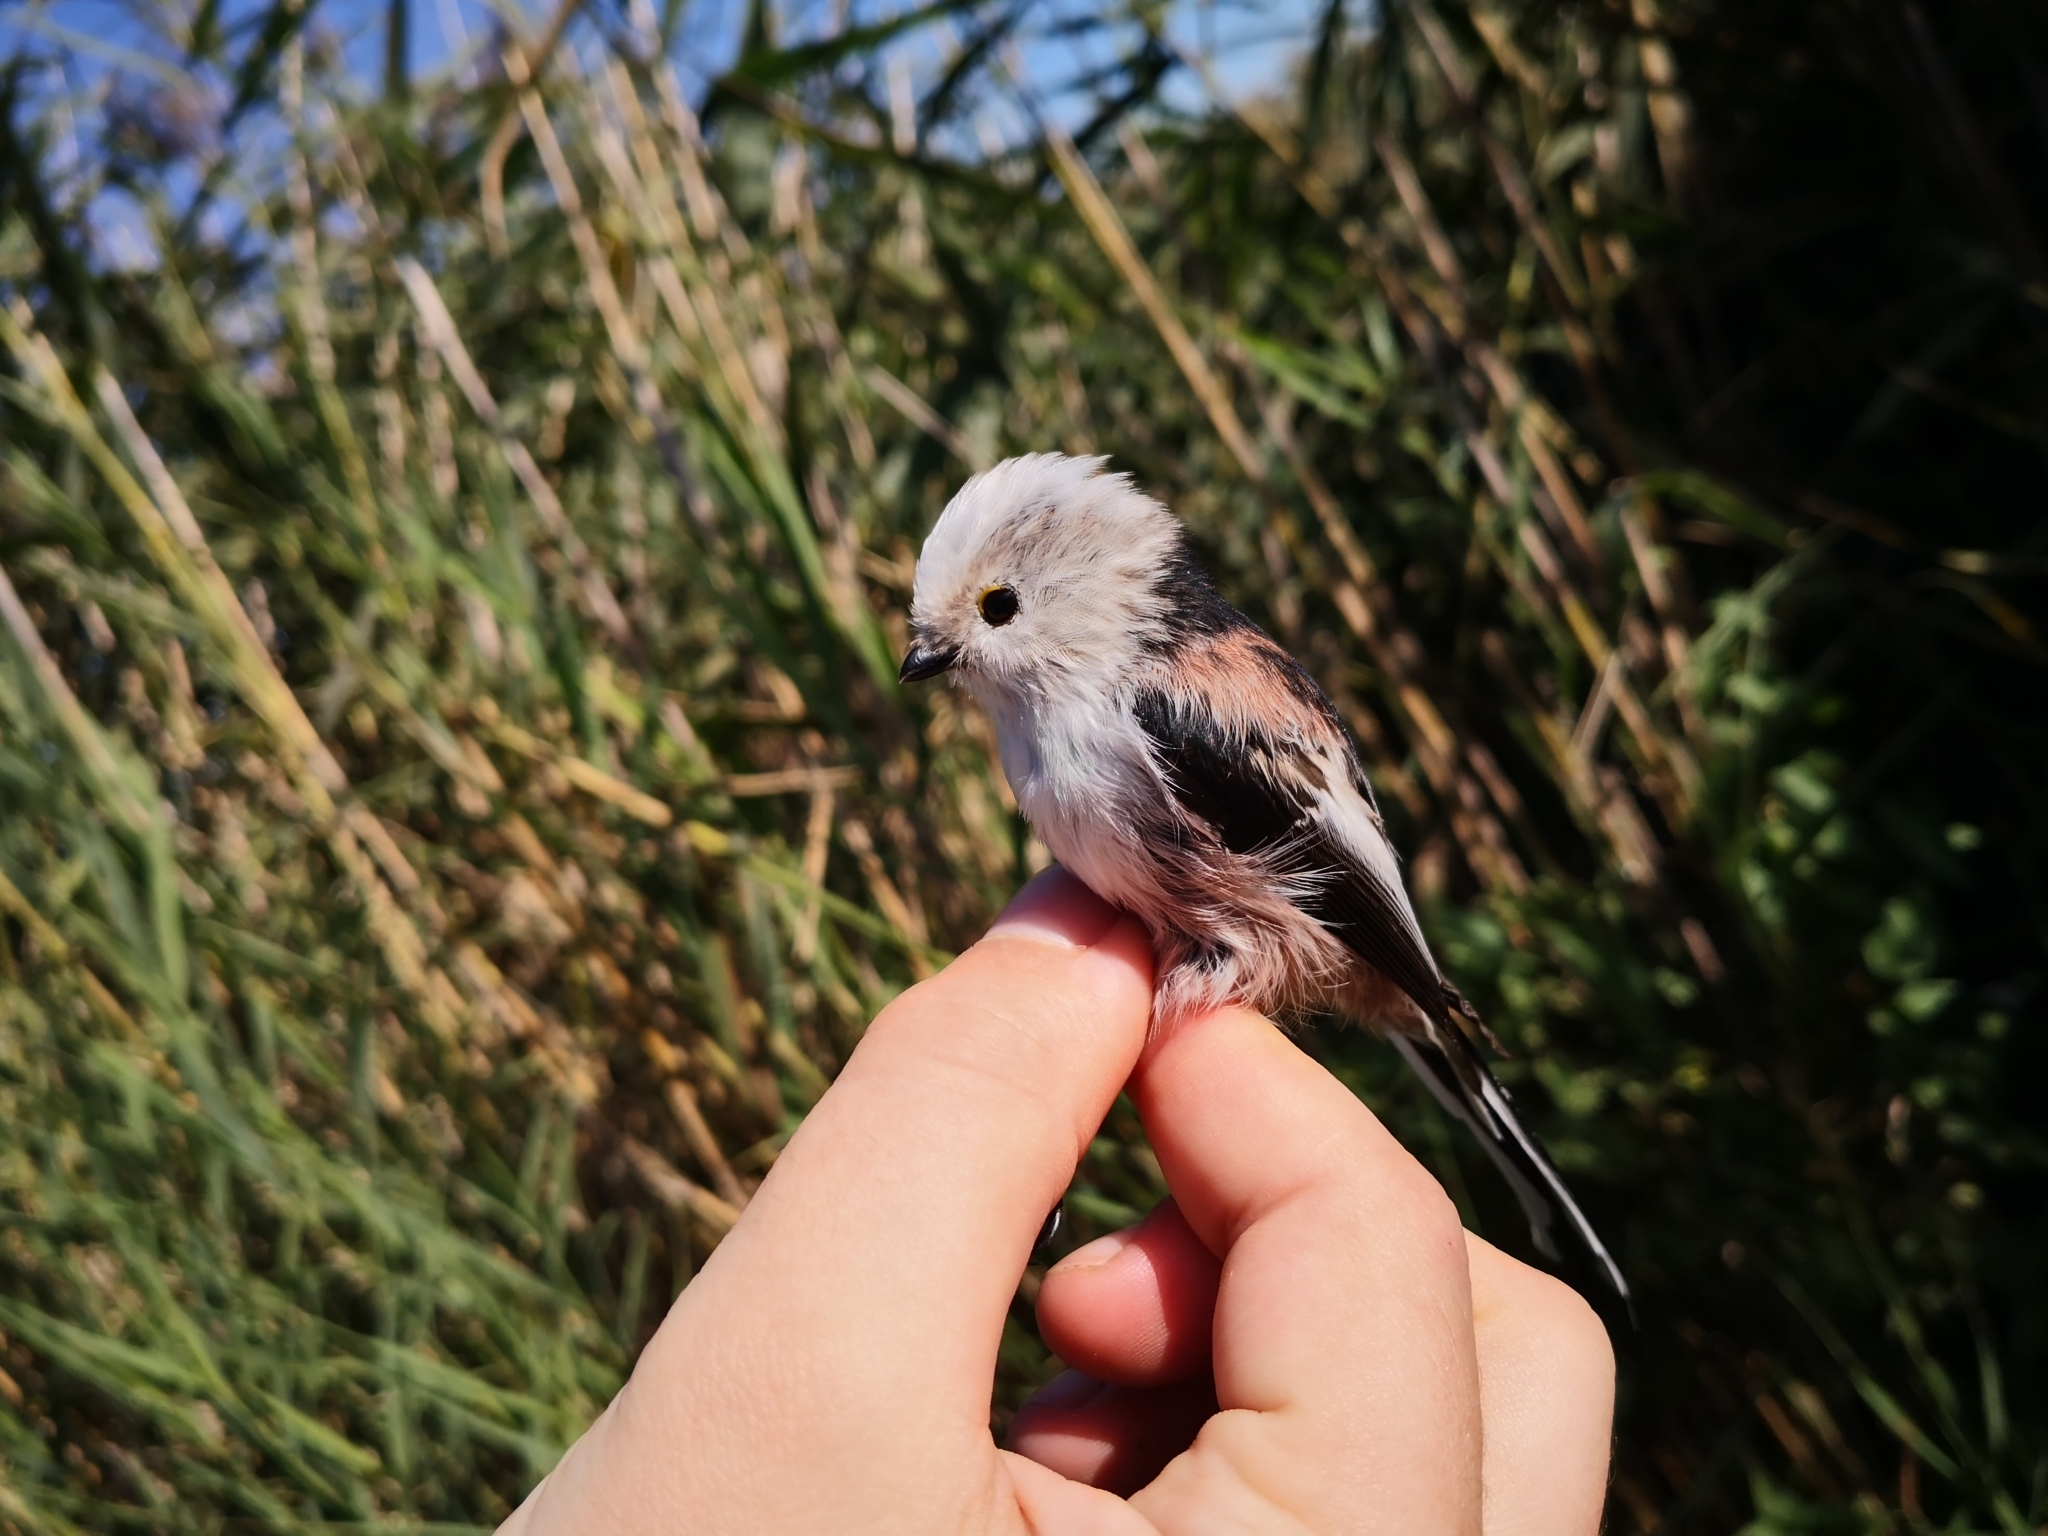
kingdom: Animalia
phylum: Chordata
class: Aves
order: Passeriformes
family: Aegithalidae
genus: Aegithalos
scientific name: Aegithalos caudatus
